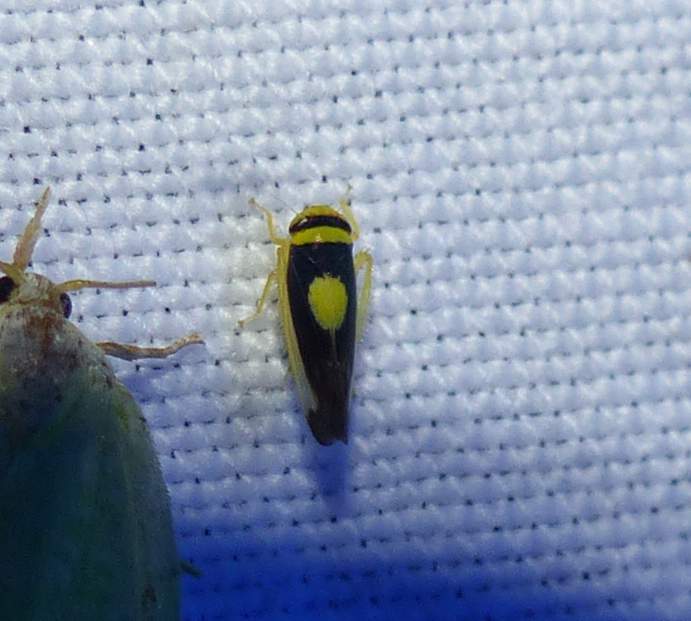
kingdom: Animalia
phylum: Arthropoda
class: Insecta
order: Hemiptera
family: Cicadellidae
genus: Colladonus
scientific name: Colladonus clitellarius
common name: The saddleback leafhopper
